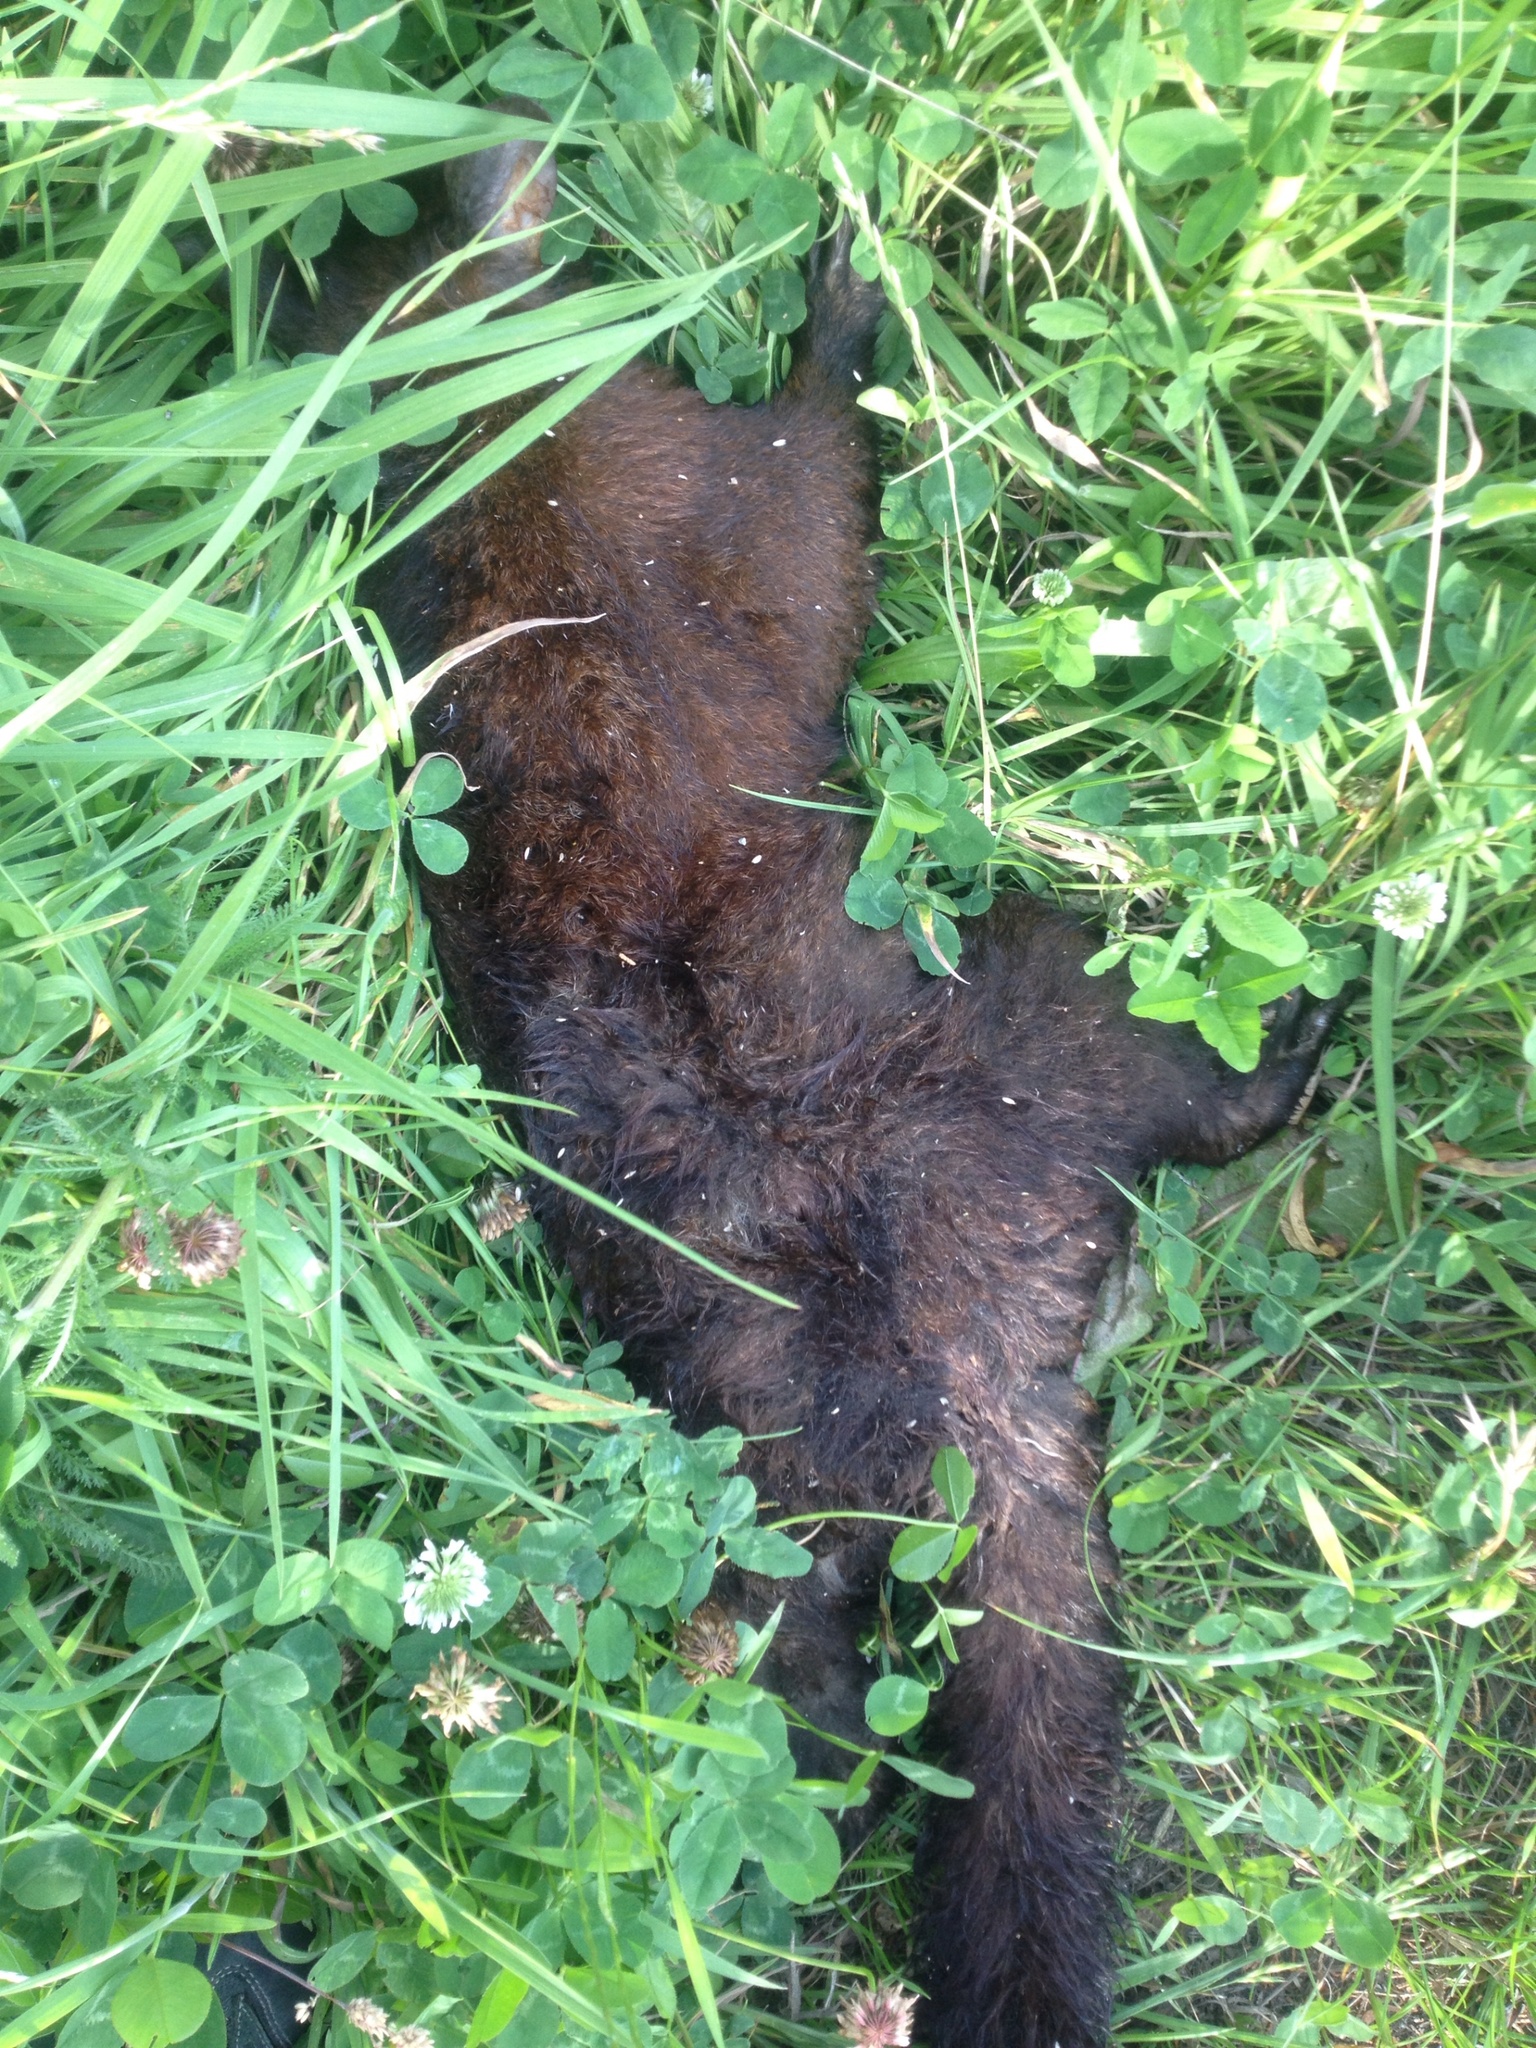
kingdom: Animalia
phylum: Chordata
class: Mammalia
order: Diprotodontia
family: Phalangeridae
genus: Trichosurus
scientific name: Trichosurus vulpecula
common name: Common brushtail
